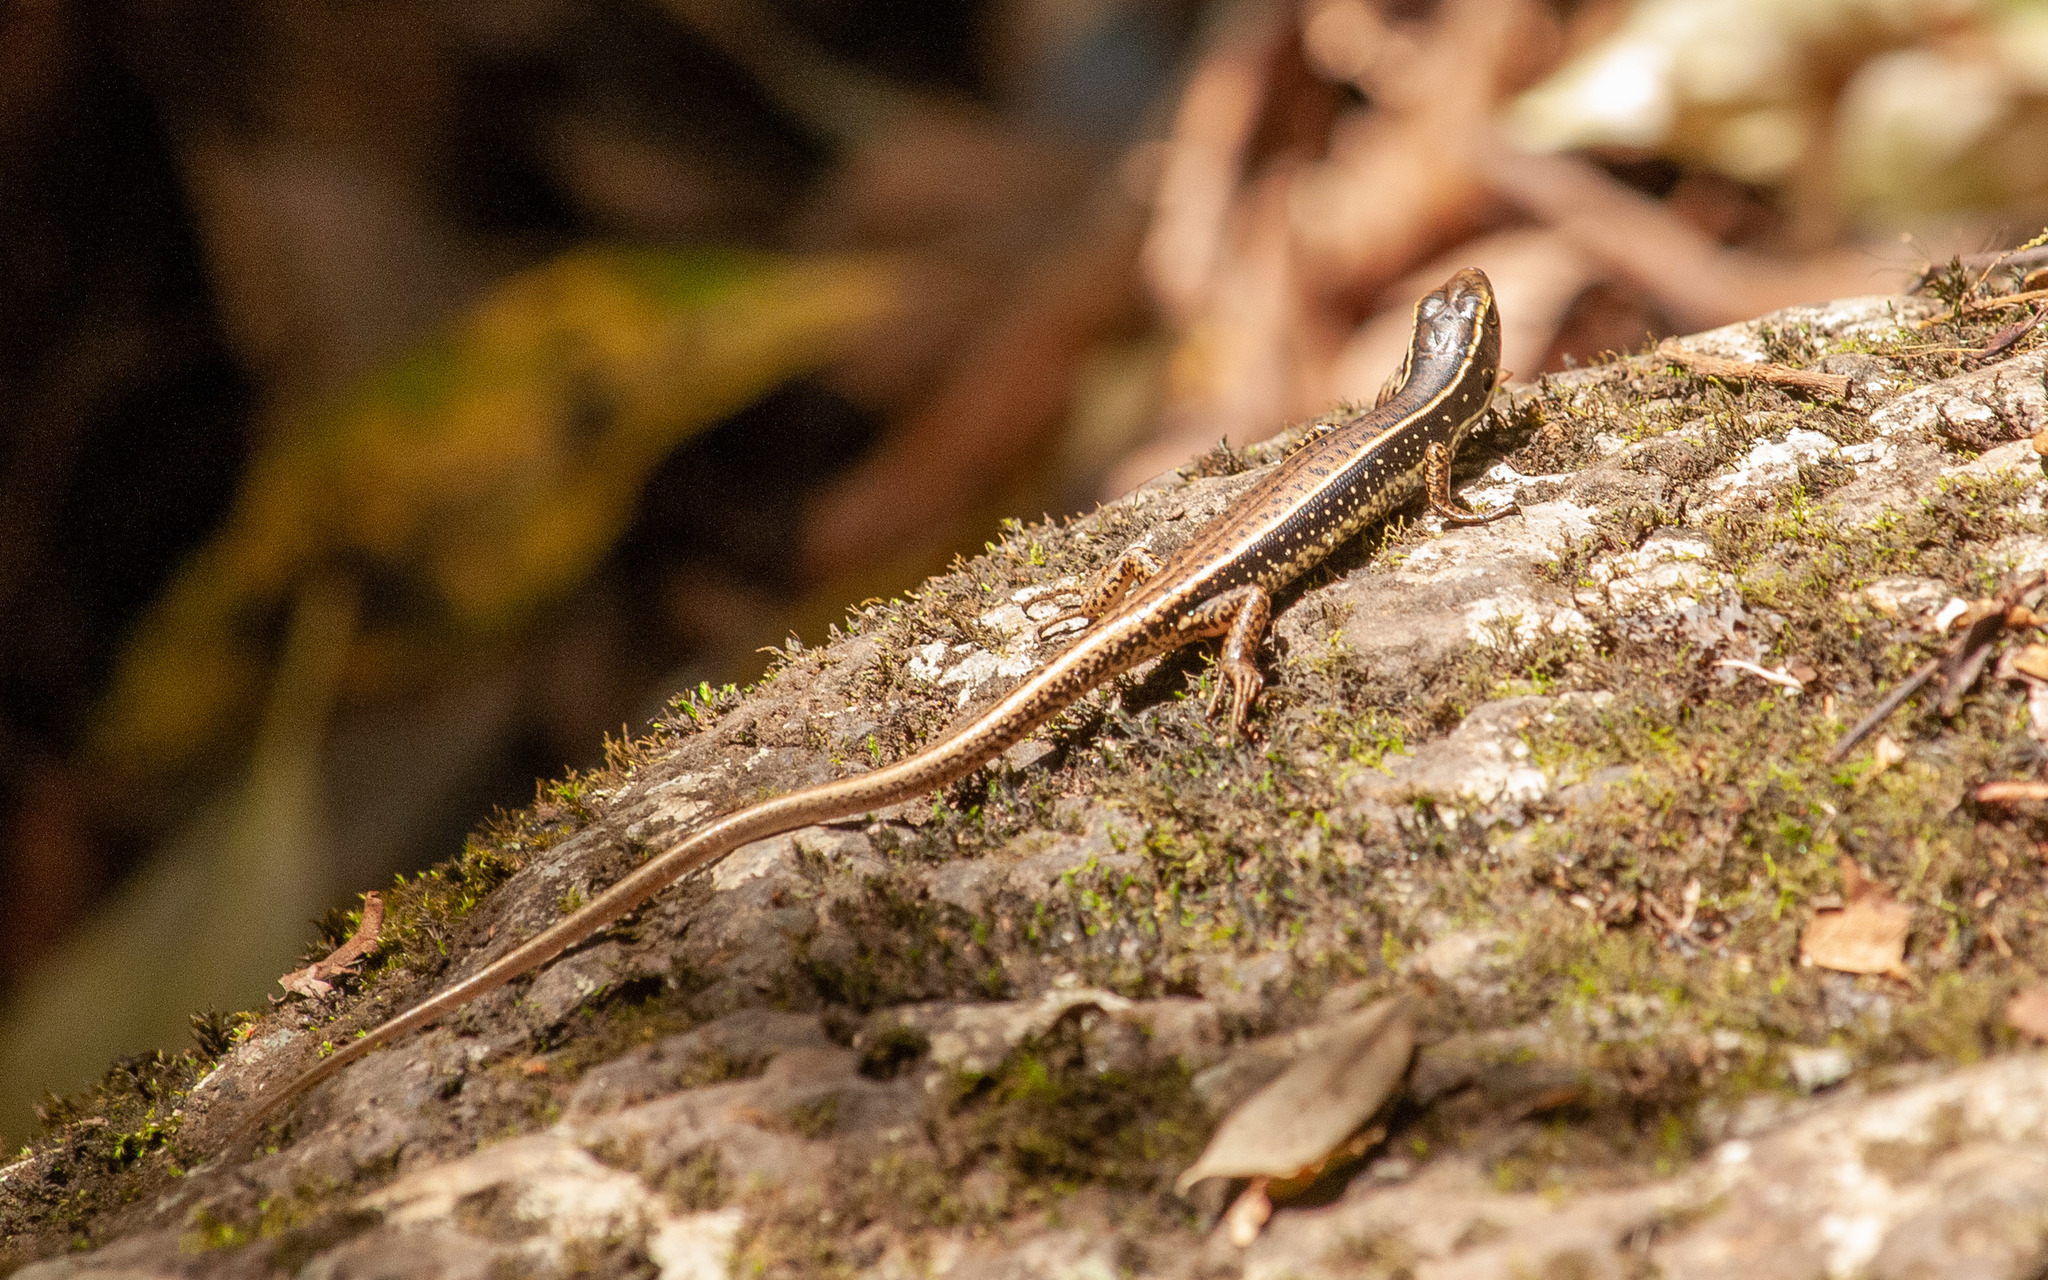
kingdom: Animalia
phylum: Chordata
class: Squamata
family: Scincidae
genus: Eulamprus
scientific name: Eulamprus quoyii
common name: Eastern water skink
